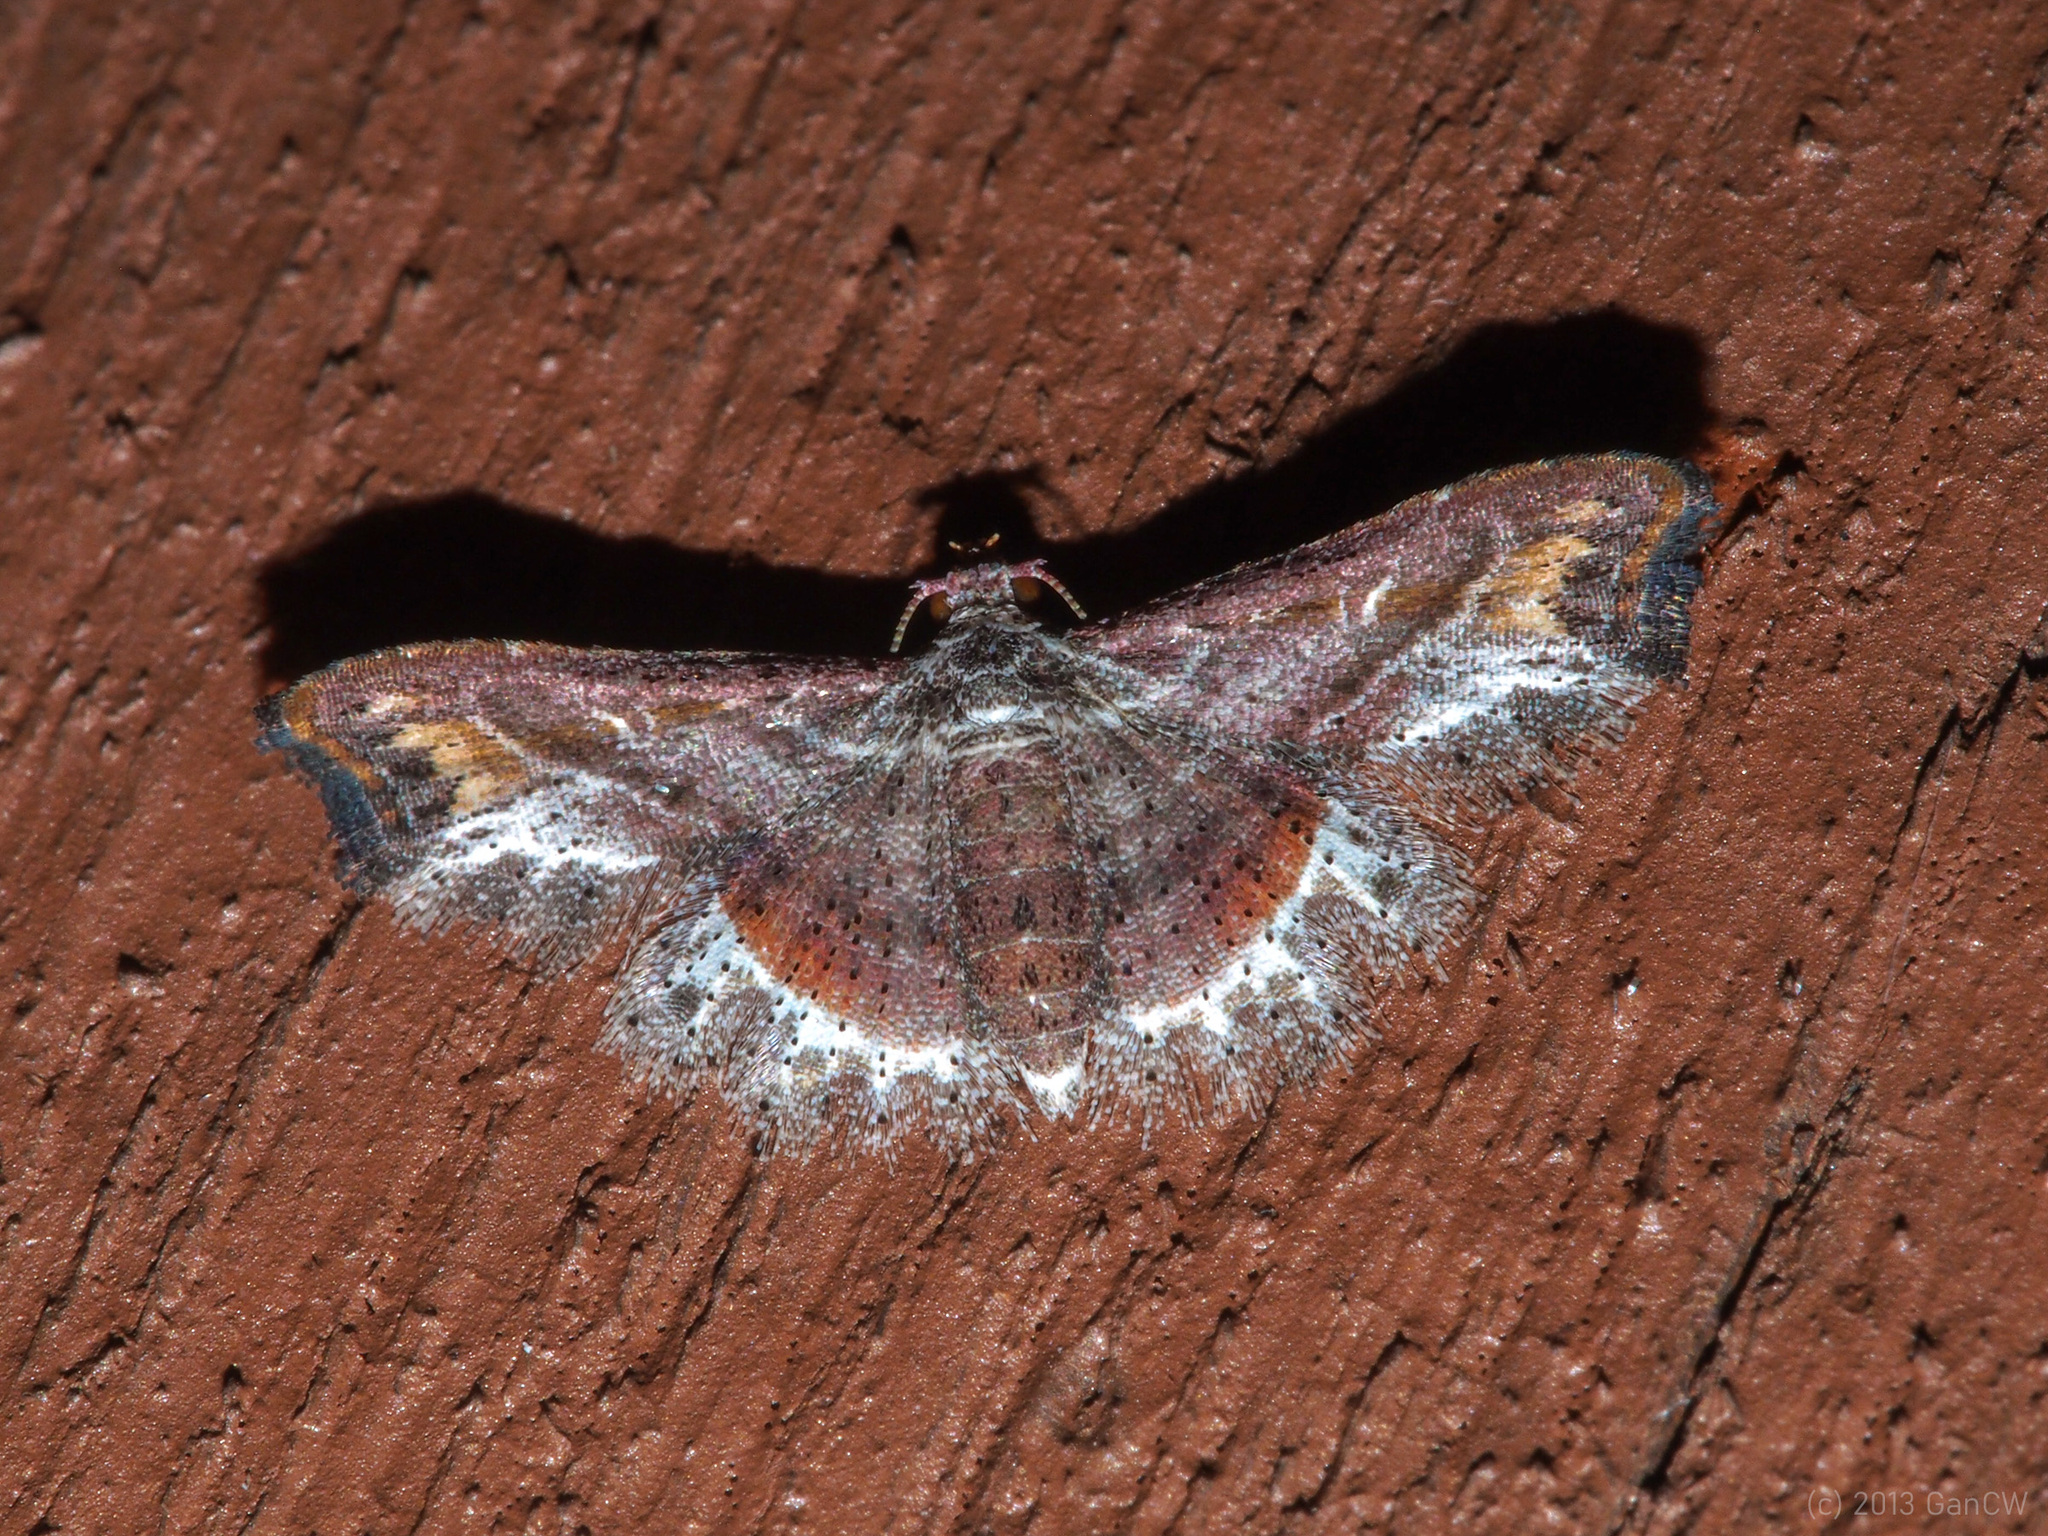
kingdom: Animalia
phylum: Arthropoda
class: Insecta
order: Lepidoptera
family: Noctuidae
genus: Hyriodes
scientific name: Hyriodes leucocraspis
